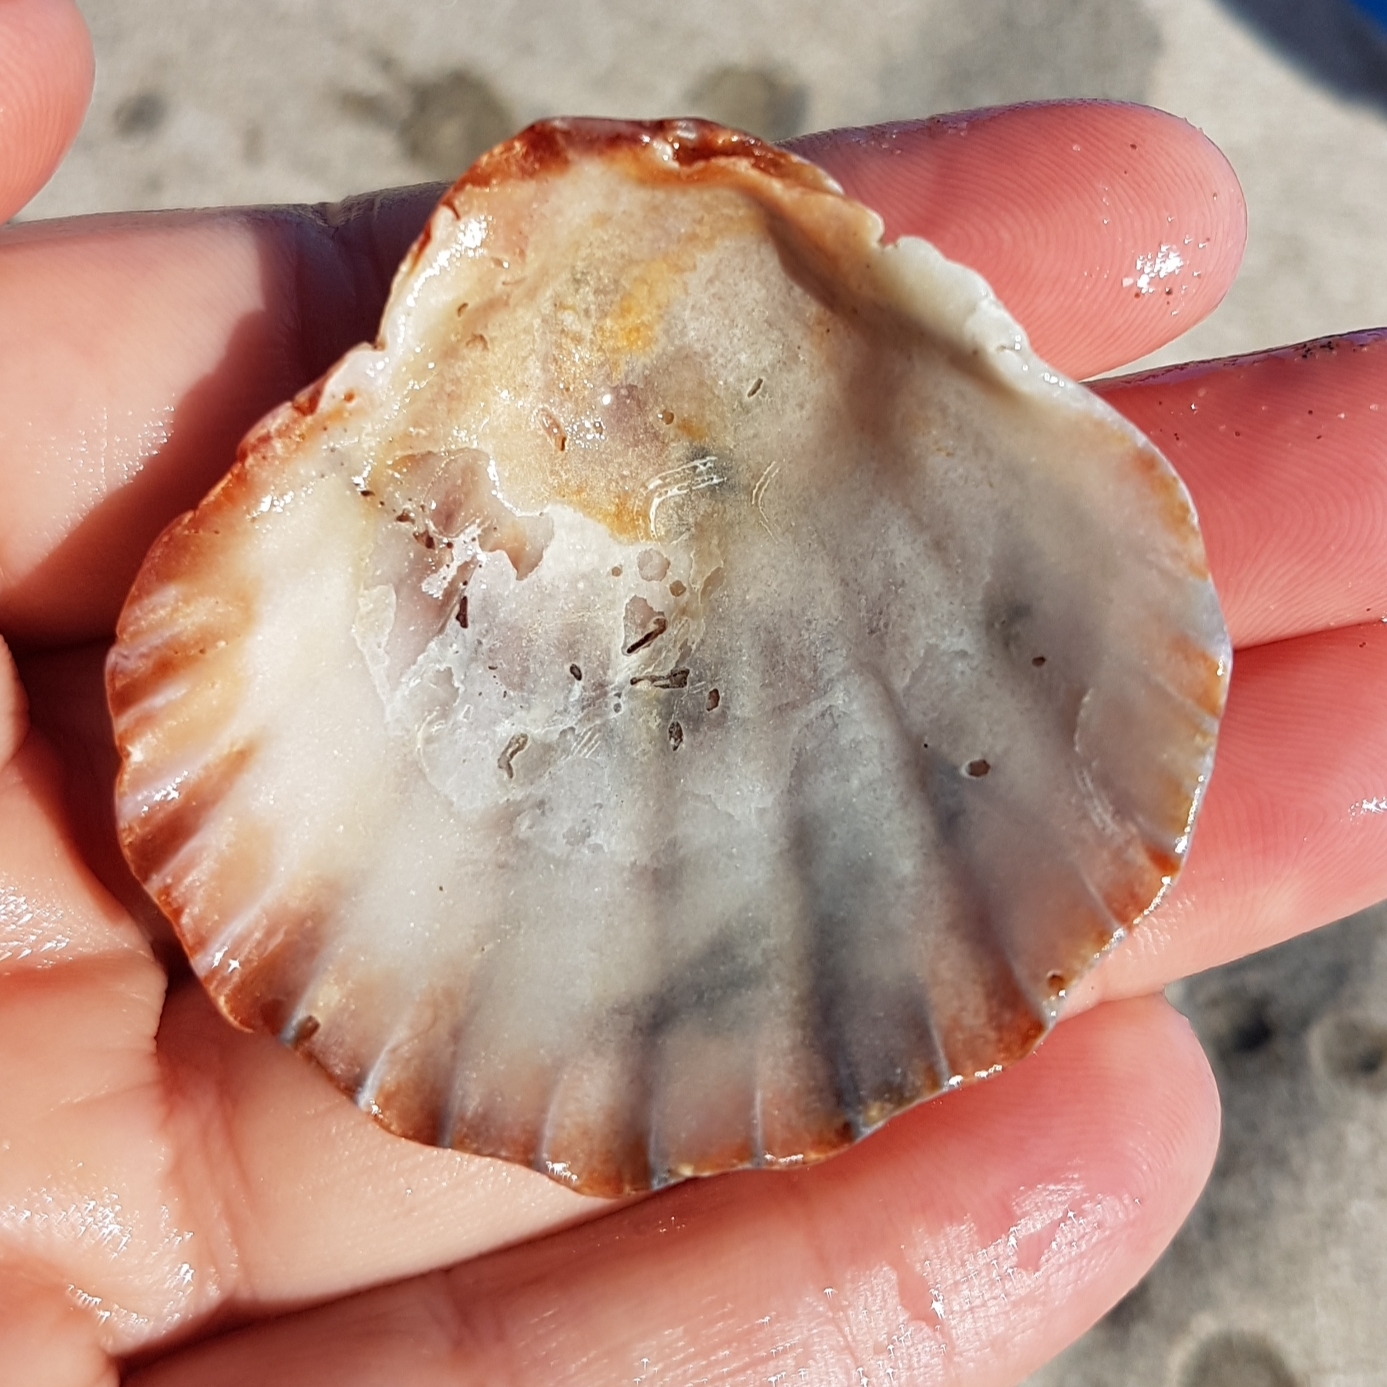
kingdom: Animalia
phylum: Mollusca
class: Bivalvia
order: Pectinida
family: Pectinidae
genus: Flexopecten
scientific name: Flexopecten glaber
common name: Smooth scallop
